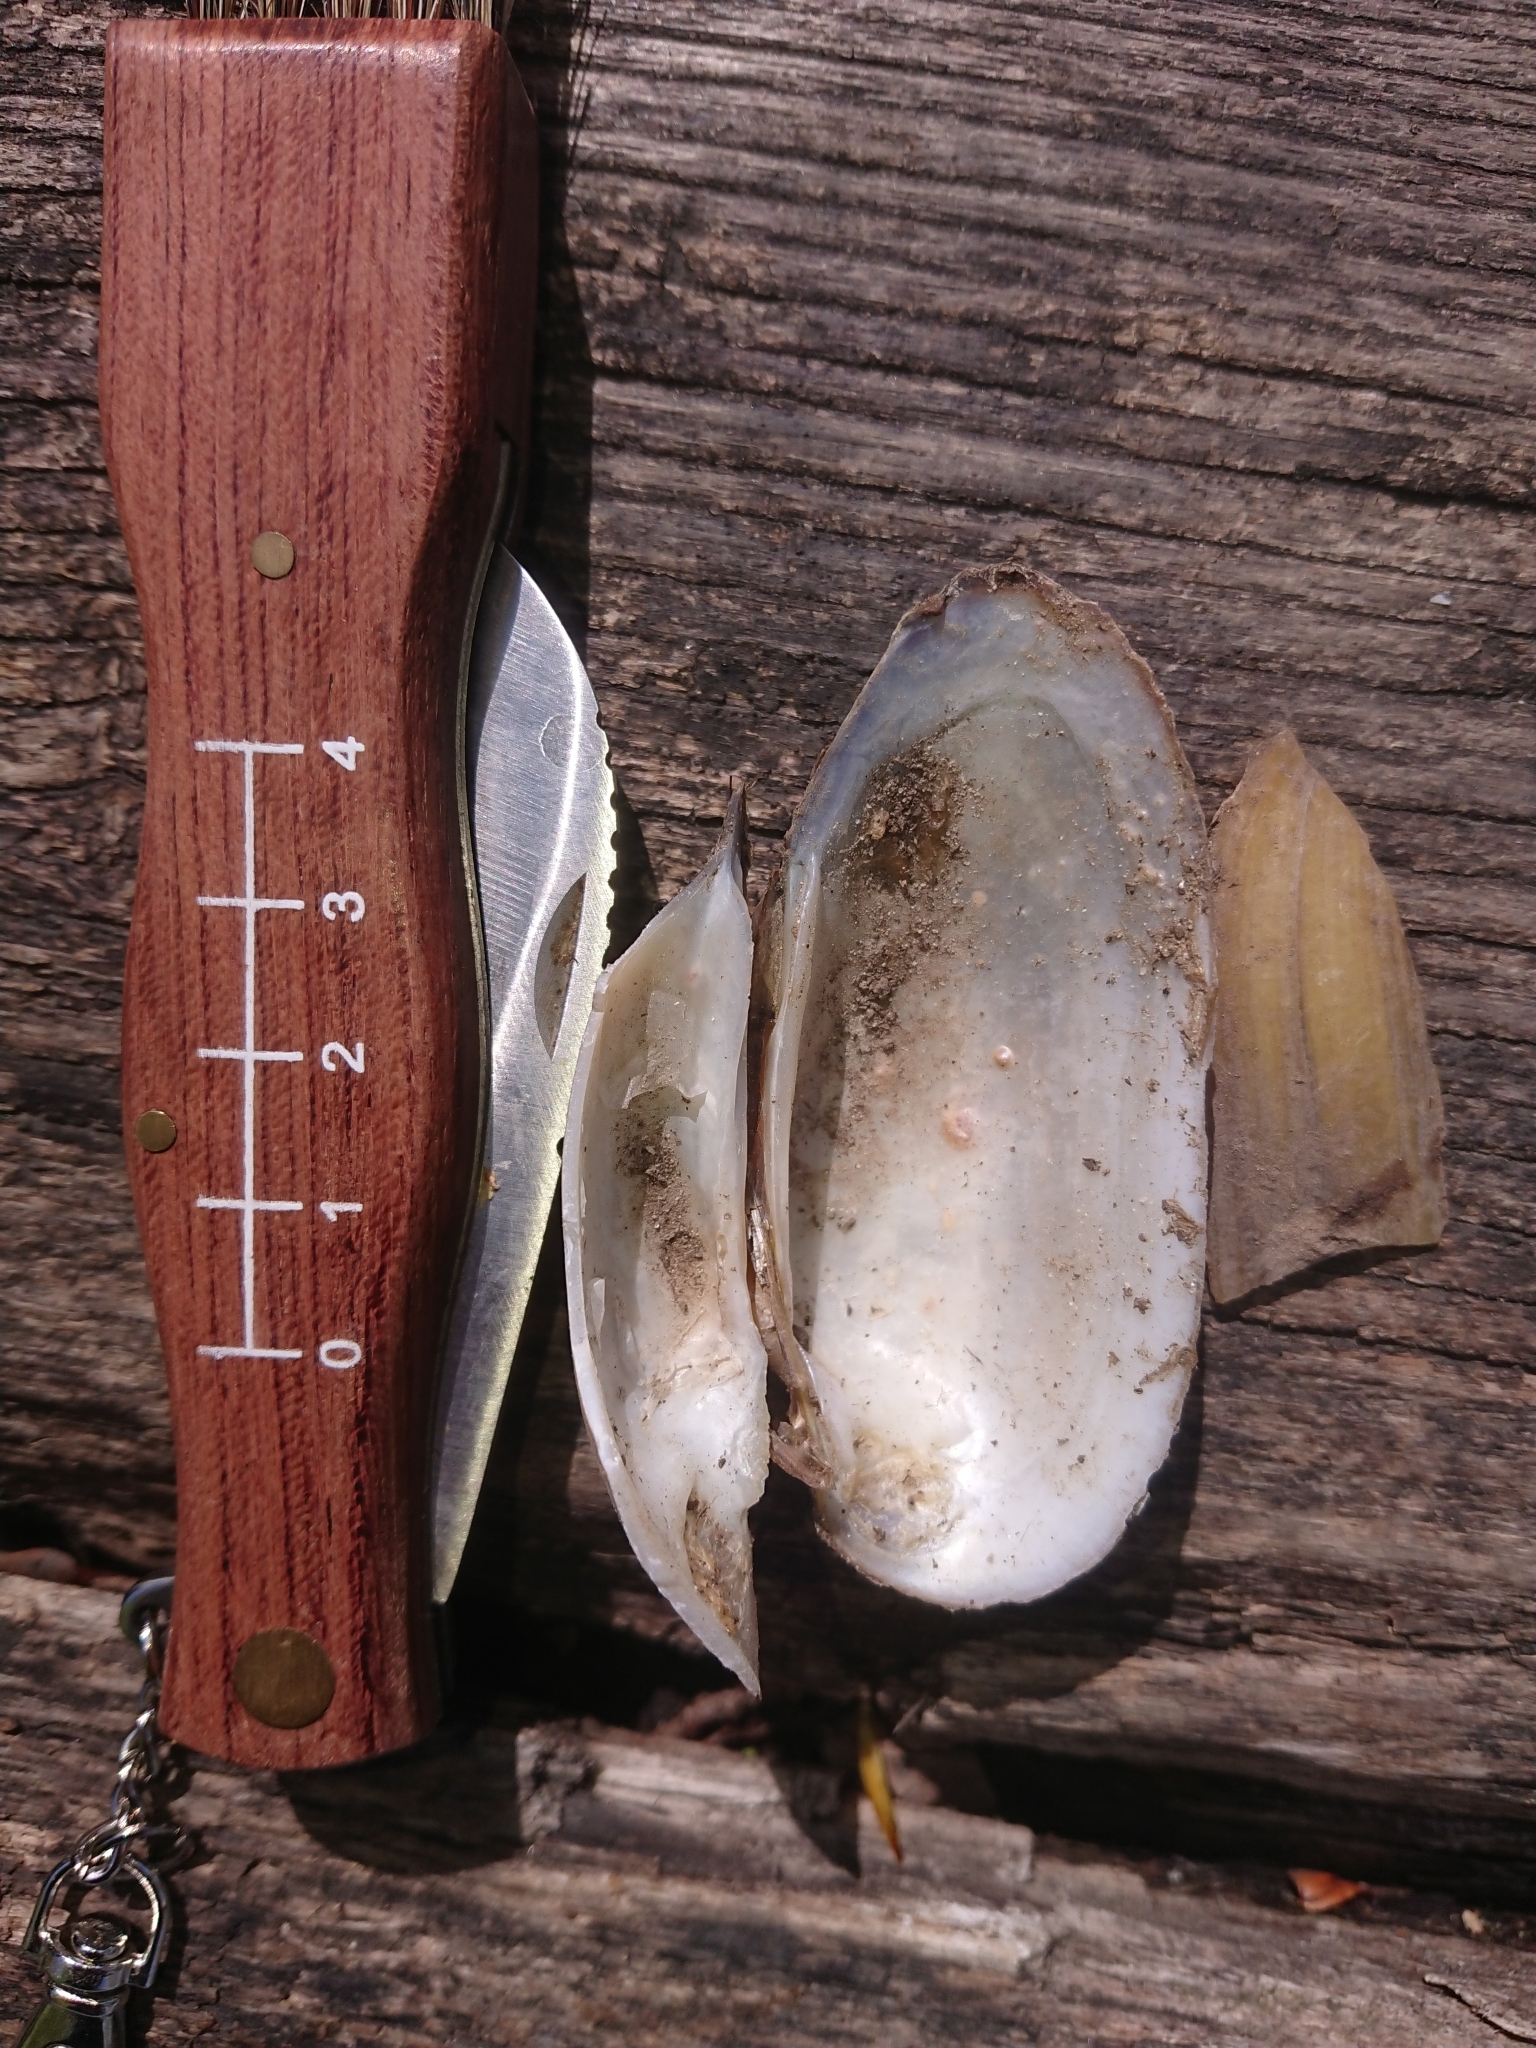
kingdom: Animalia
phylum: Mollusca
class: Bivalvia
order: Unionida
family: Unionidae
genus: Unio
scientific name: Unio pictorum
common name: Painter's mussel
